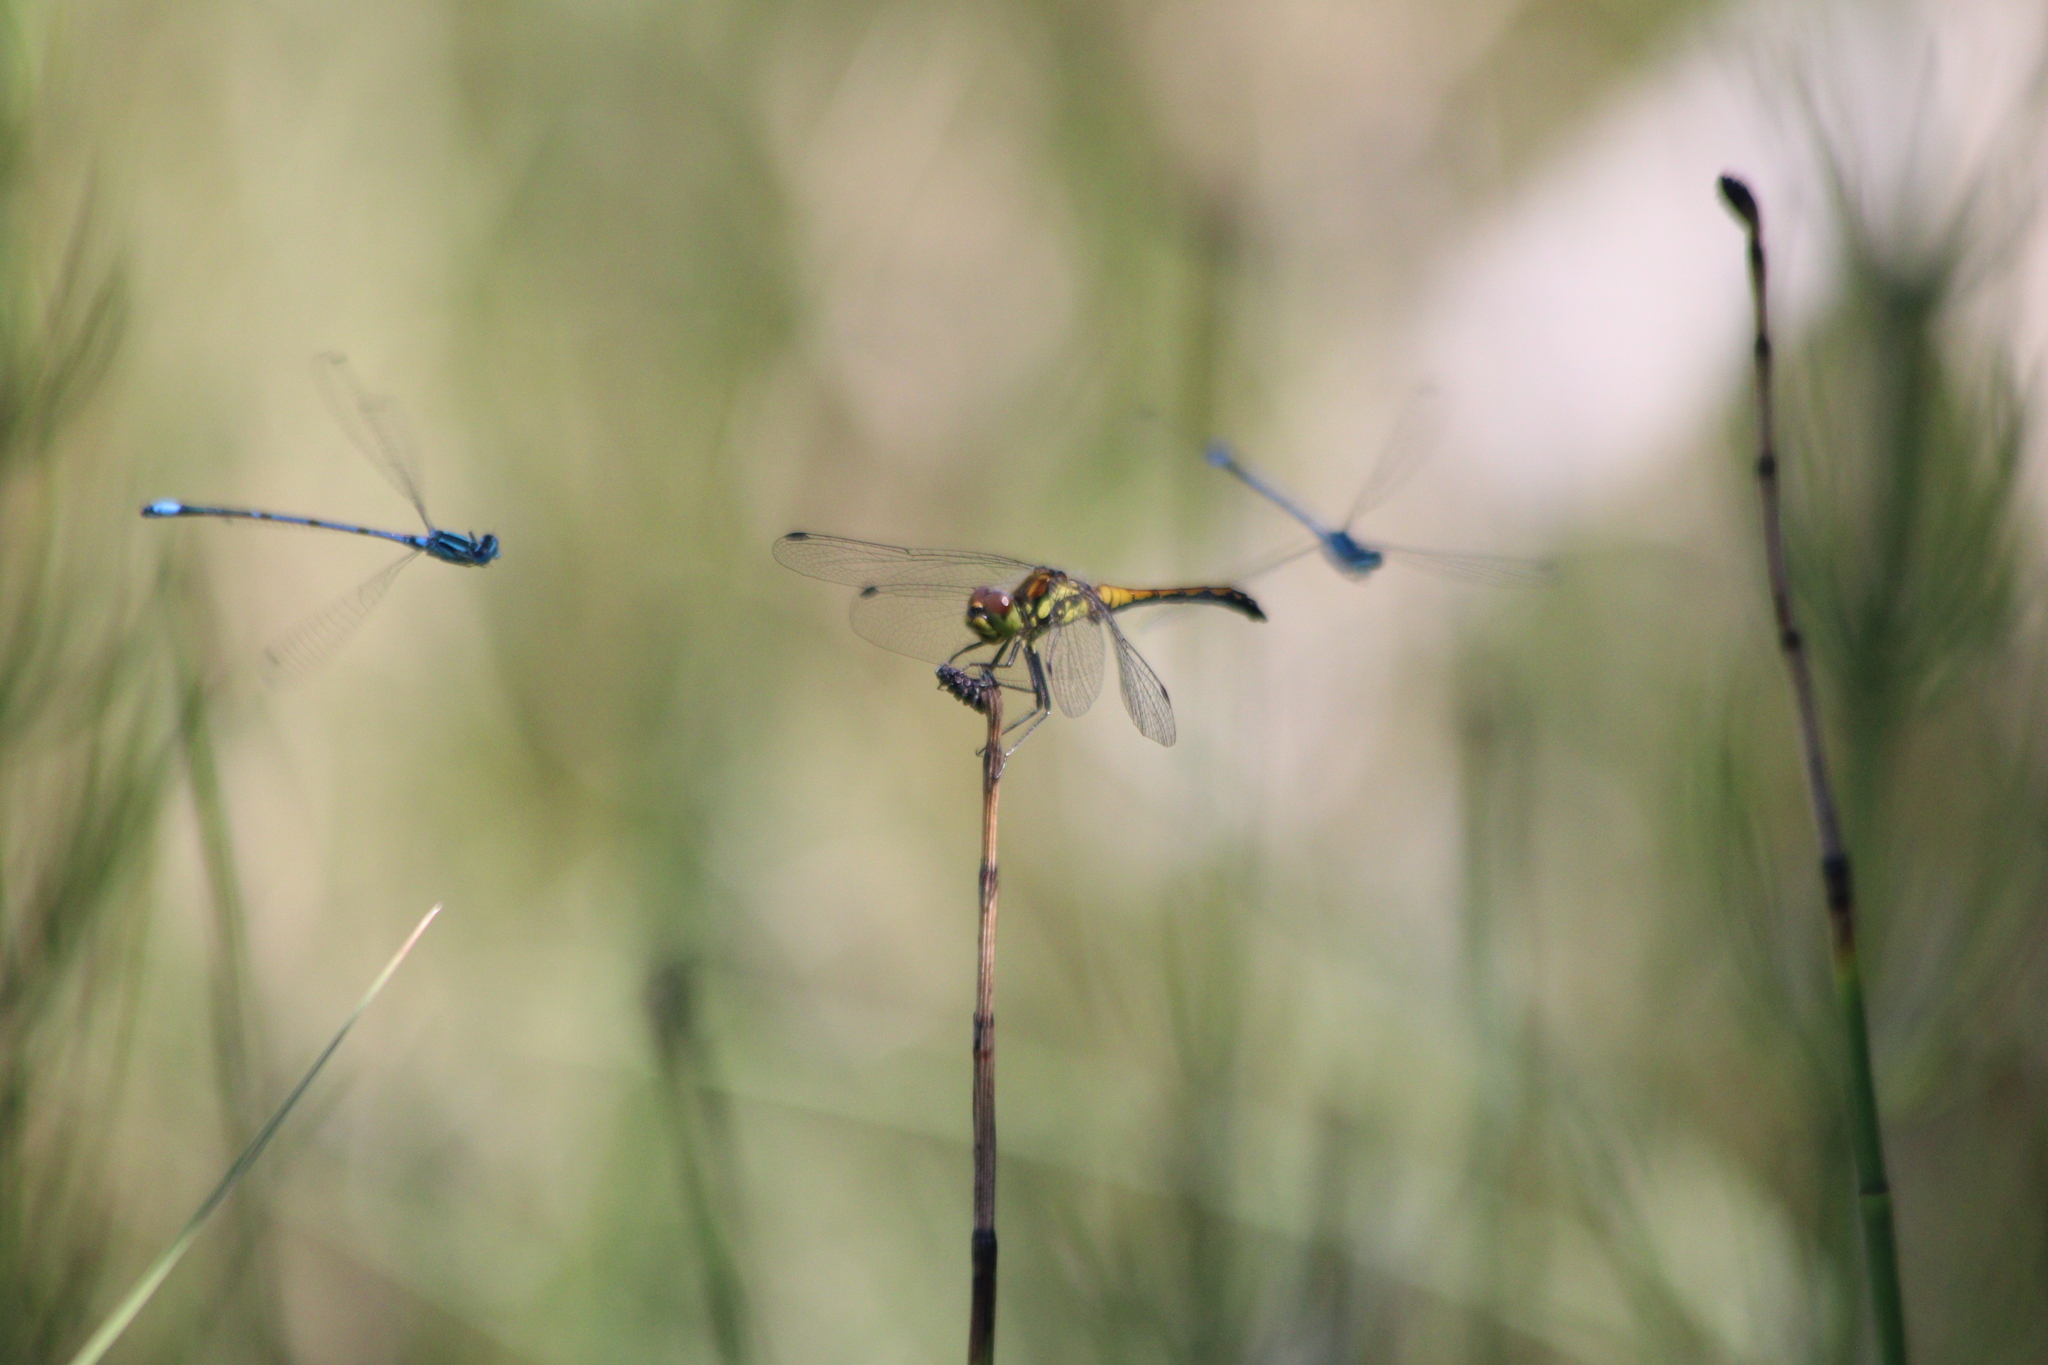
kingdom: Animalia
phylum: Arthropoda
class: Insecta
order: Odonata
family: Libellulidae
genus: Sympetrum
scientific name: Sympetrum danae
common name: Black darter
